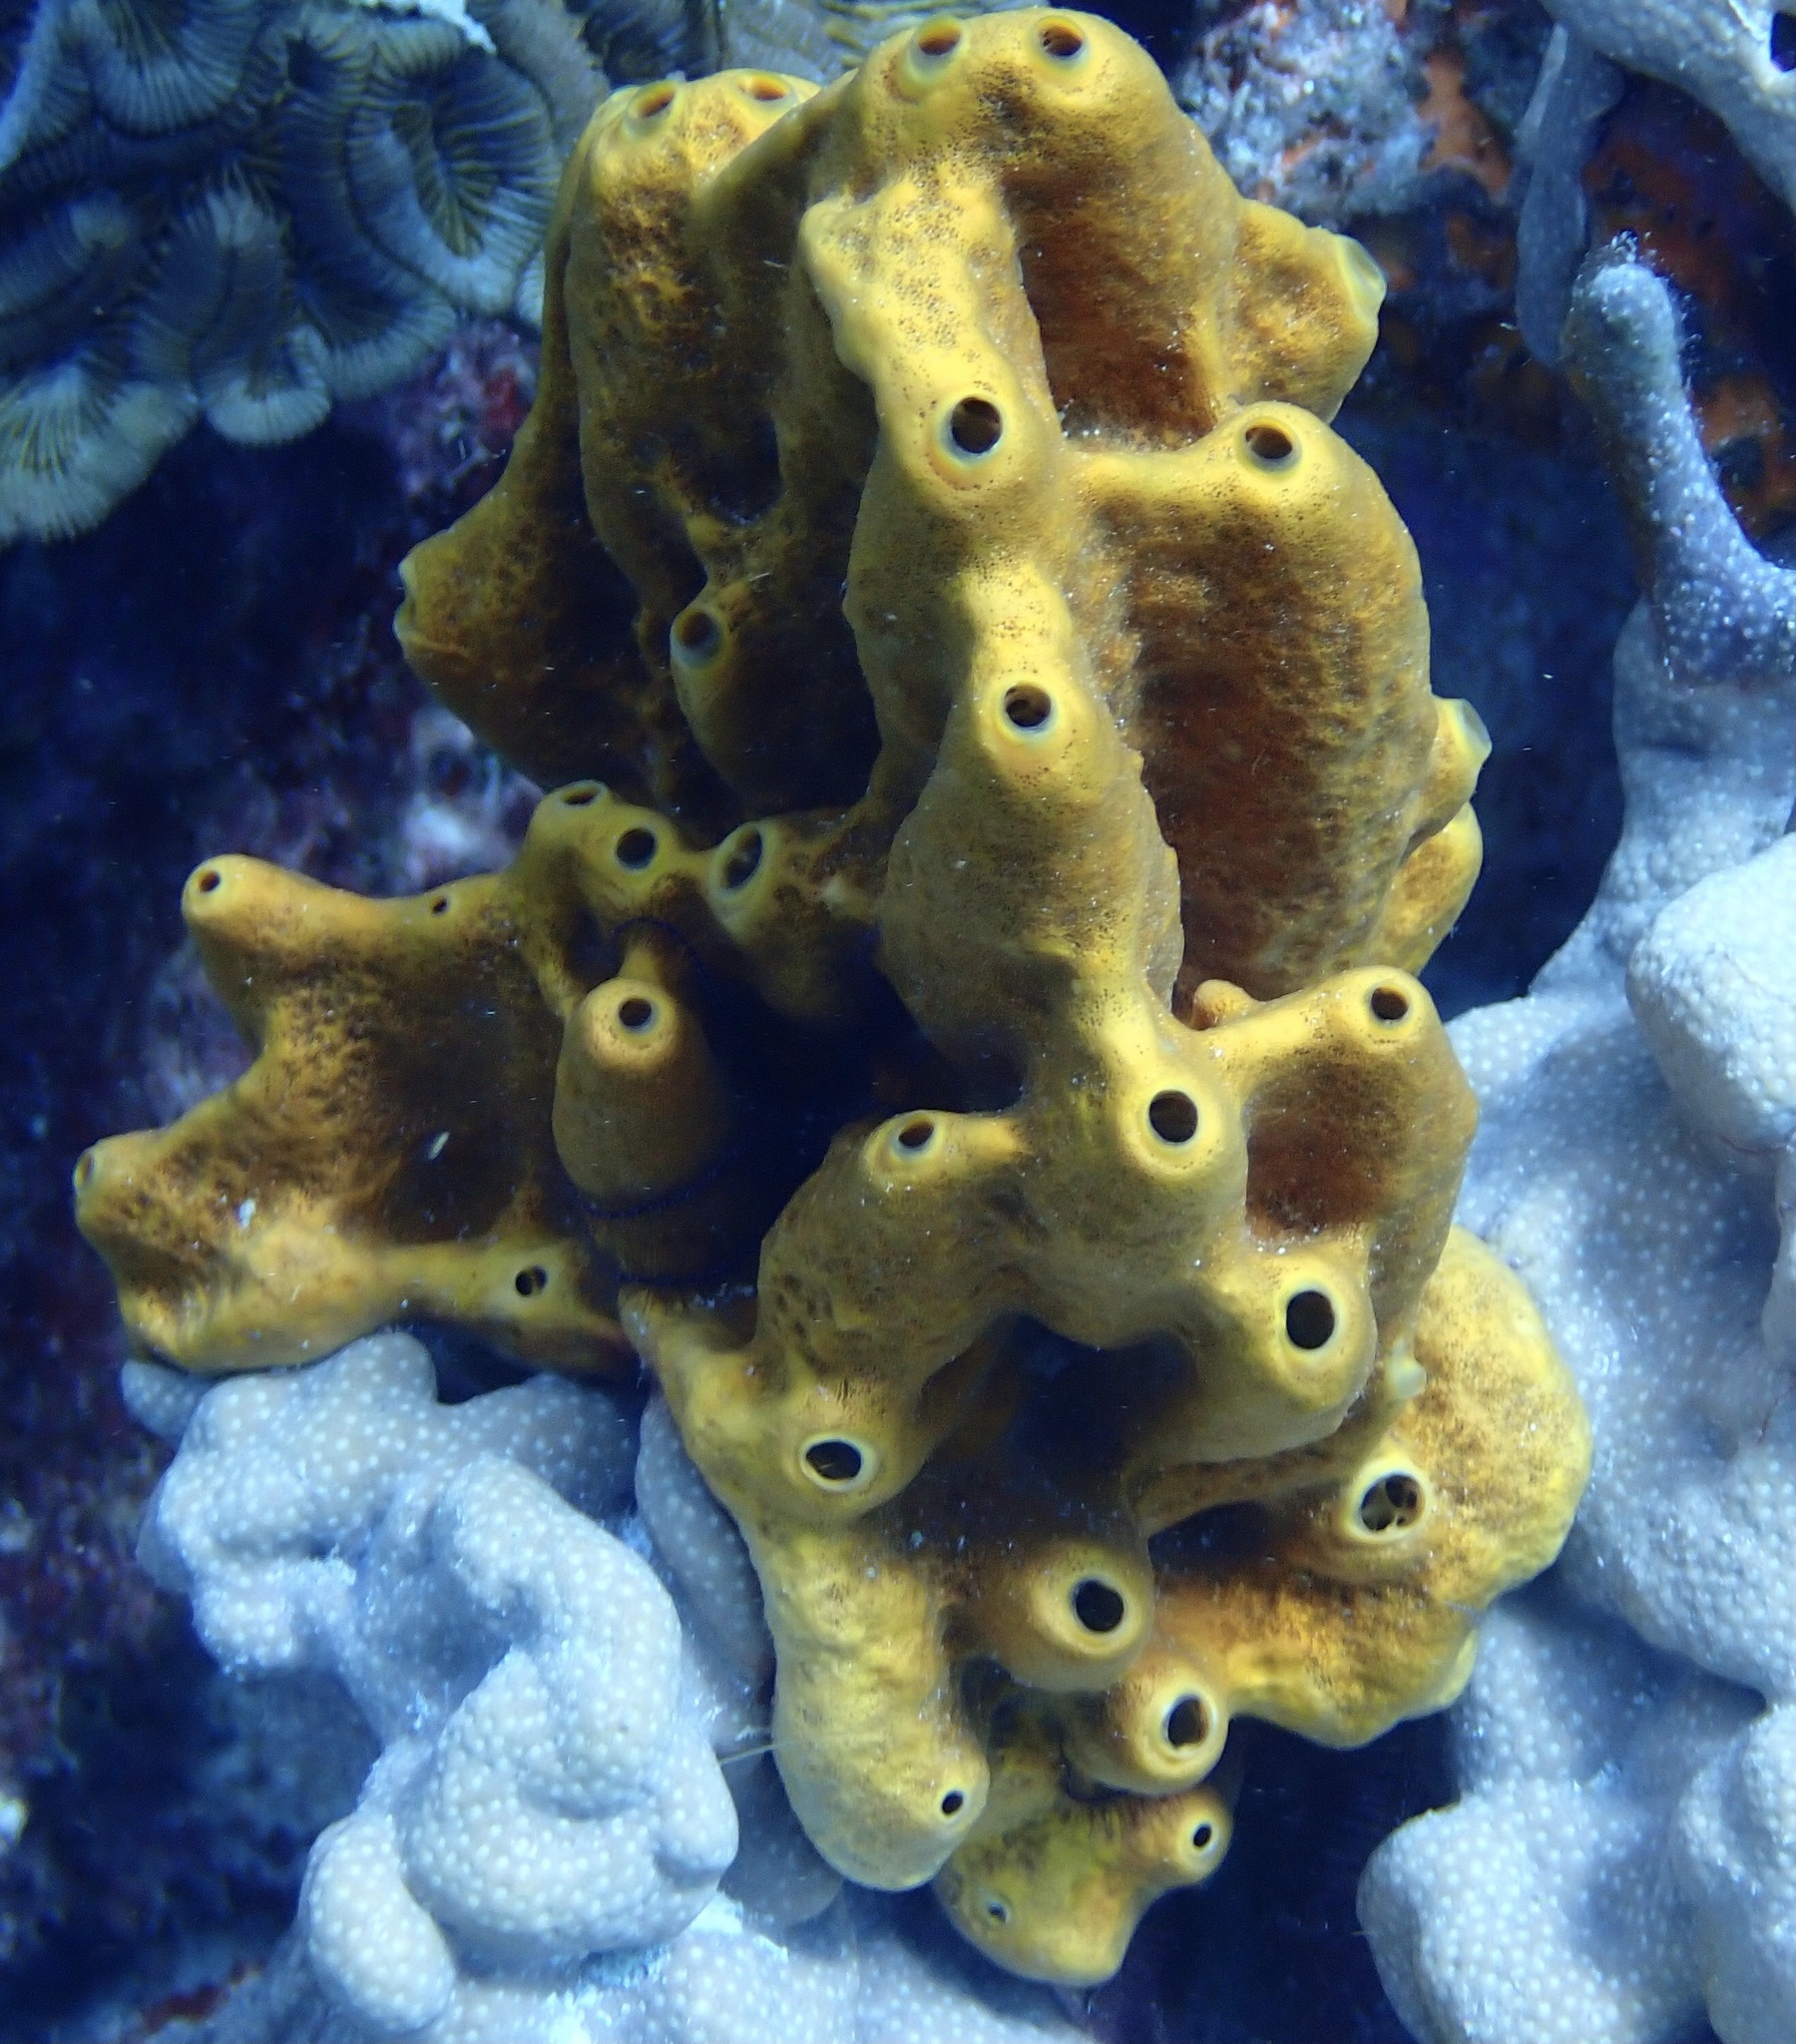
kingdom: Animalia
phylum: Porifera
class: Demospongiae
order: Axinellida
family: Raspailiidae
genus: Ectyoplasia
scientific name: Ectyoplasia ferox
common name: Brown encrusting octopus sponge
